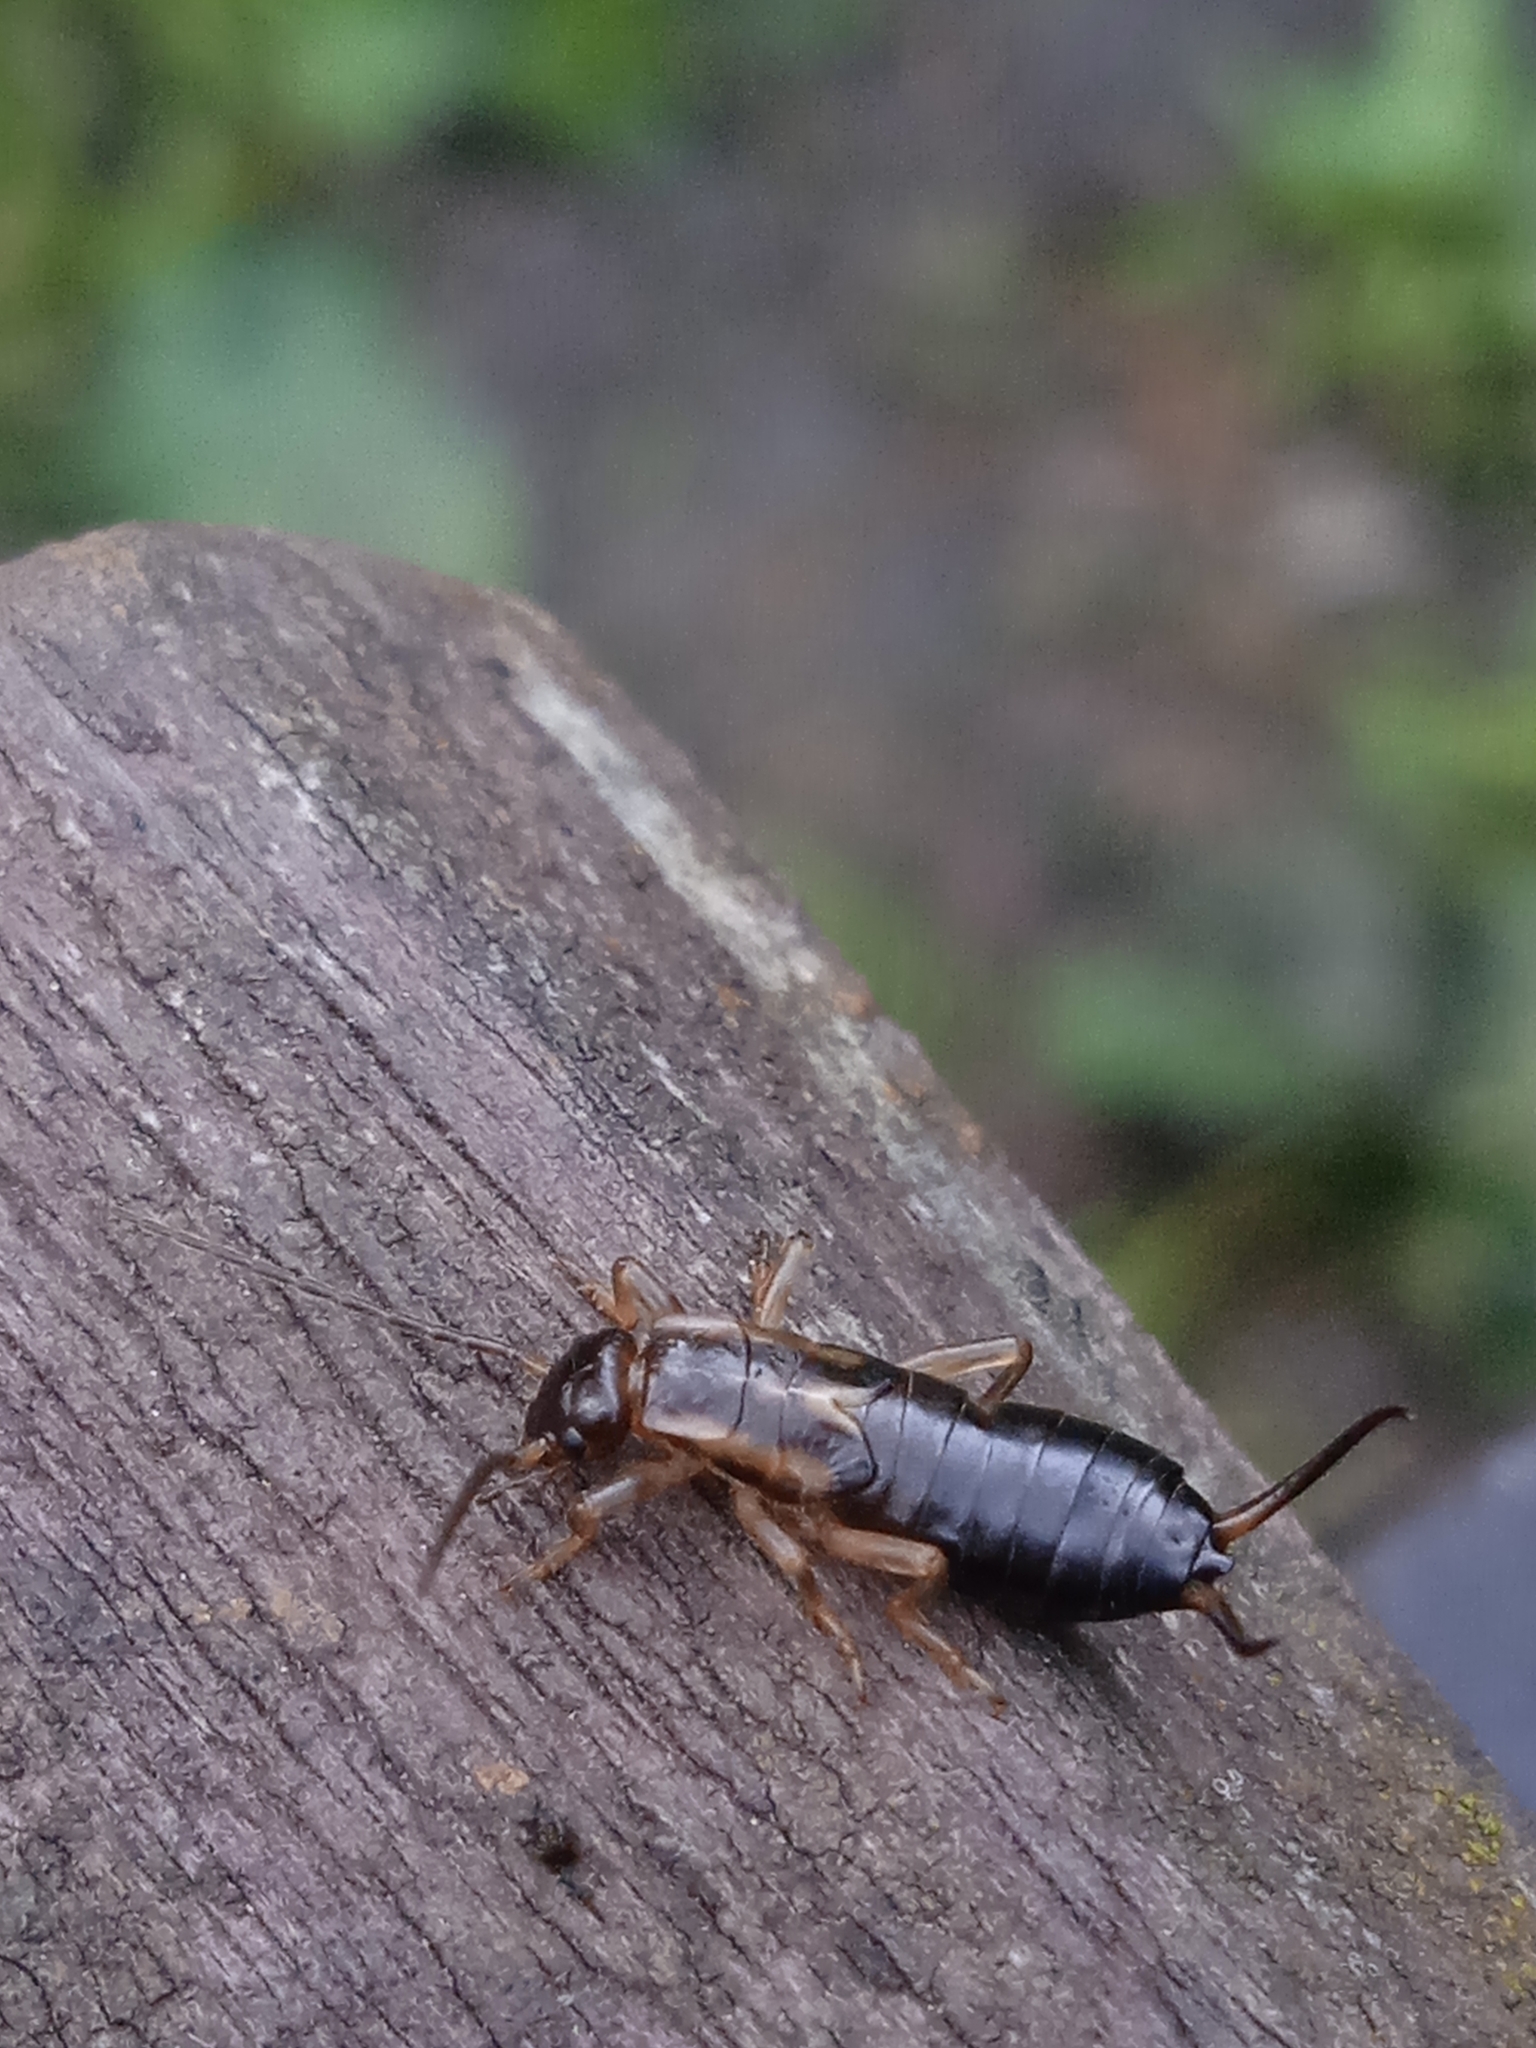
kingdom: Animalia
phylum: Arthropoda
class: Insecta
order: Dermaptera
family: Forficulidae
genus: Forficula
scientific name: Forficula
